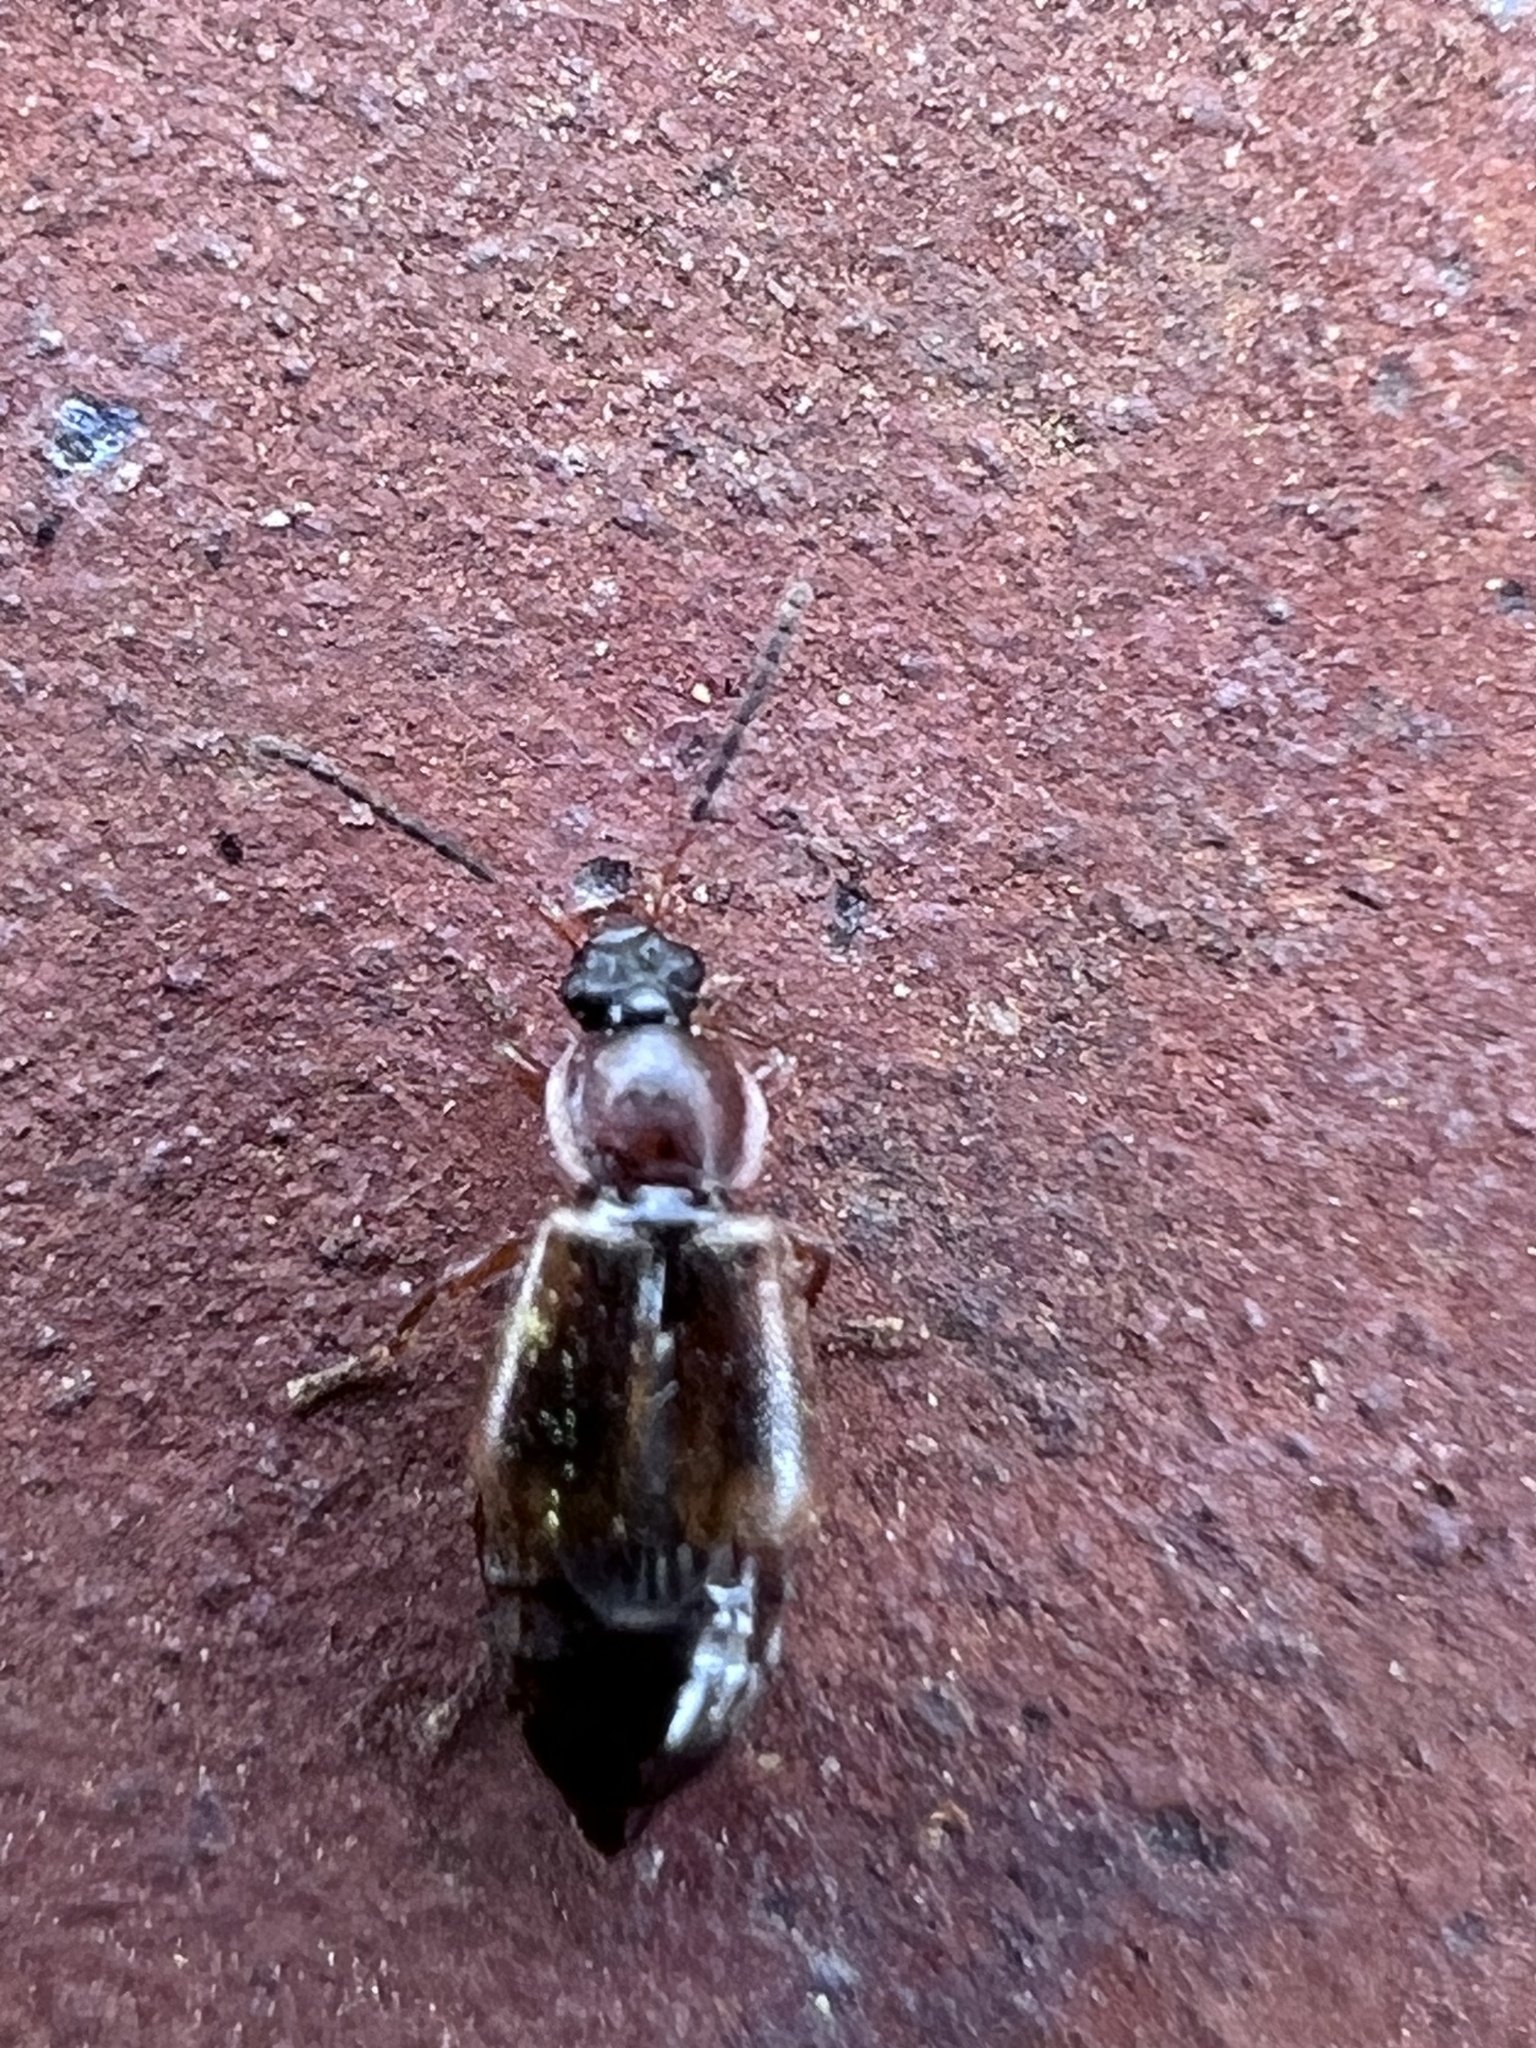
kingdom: Animalia
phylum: Arthropoda
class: Insecta
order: Coleoptera
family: Staphylinidae
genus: Pelecomalium
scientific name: Pelecomalium testaceum
